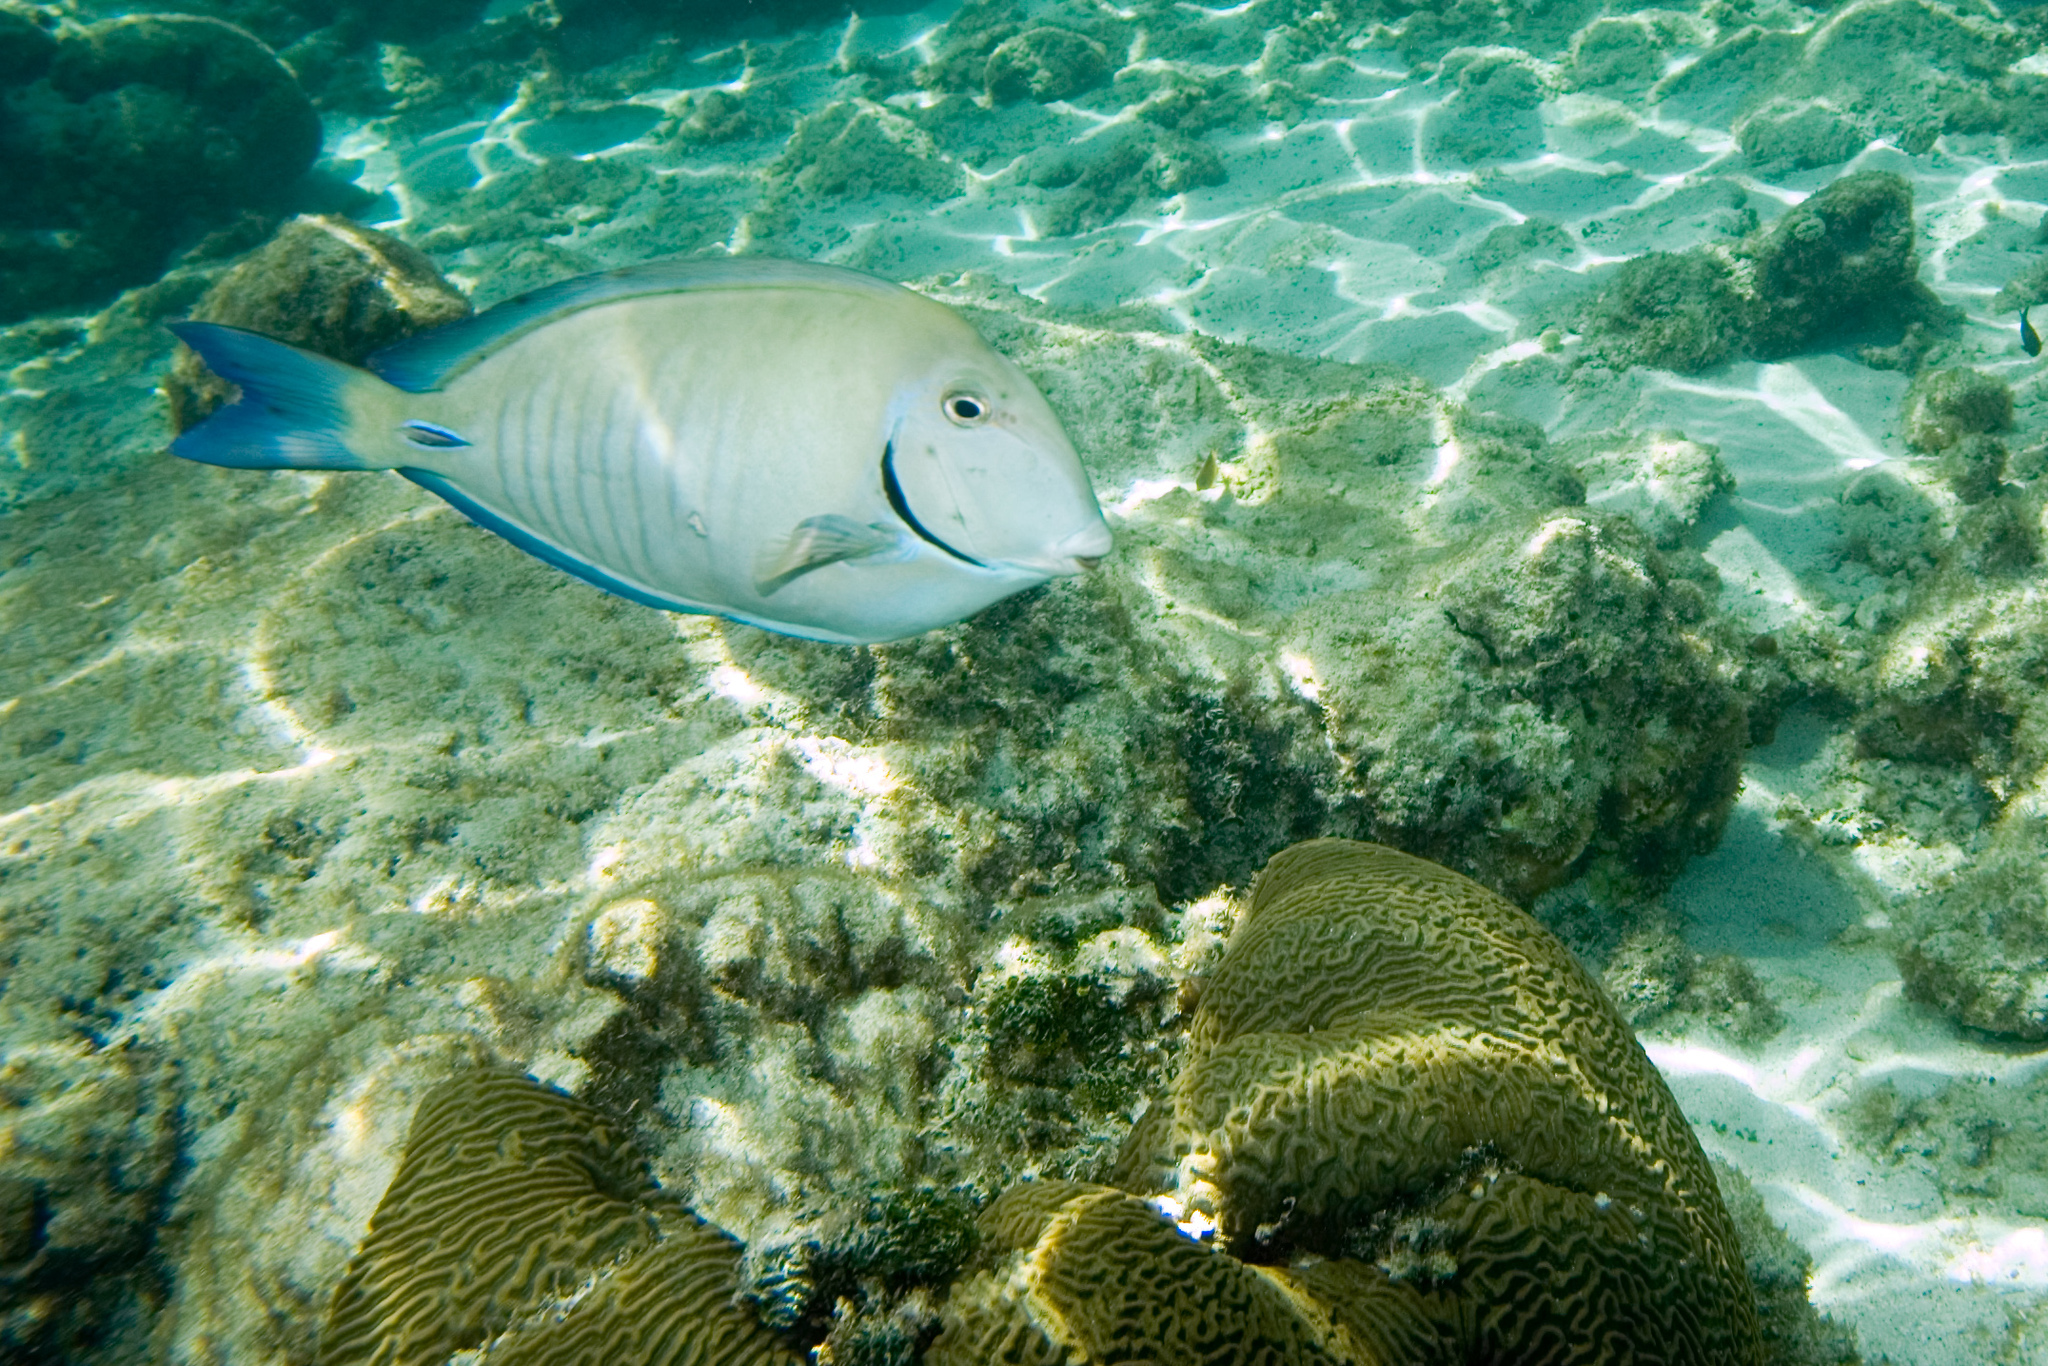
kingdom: Animalia
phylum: Chordata
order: Perciformes
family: Acanthuridae
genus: Acanthurus
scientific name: Acanthurus chirurgus
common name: Doctorfish
